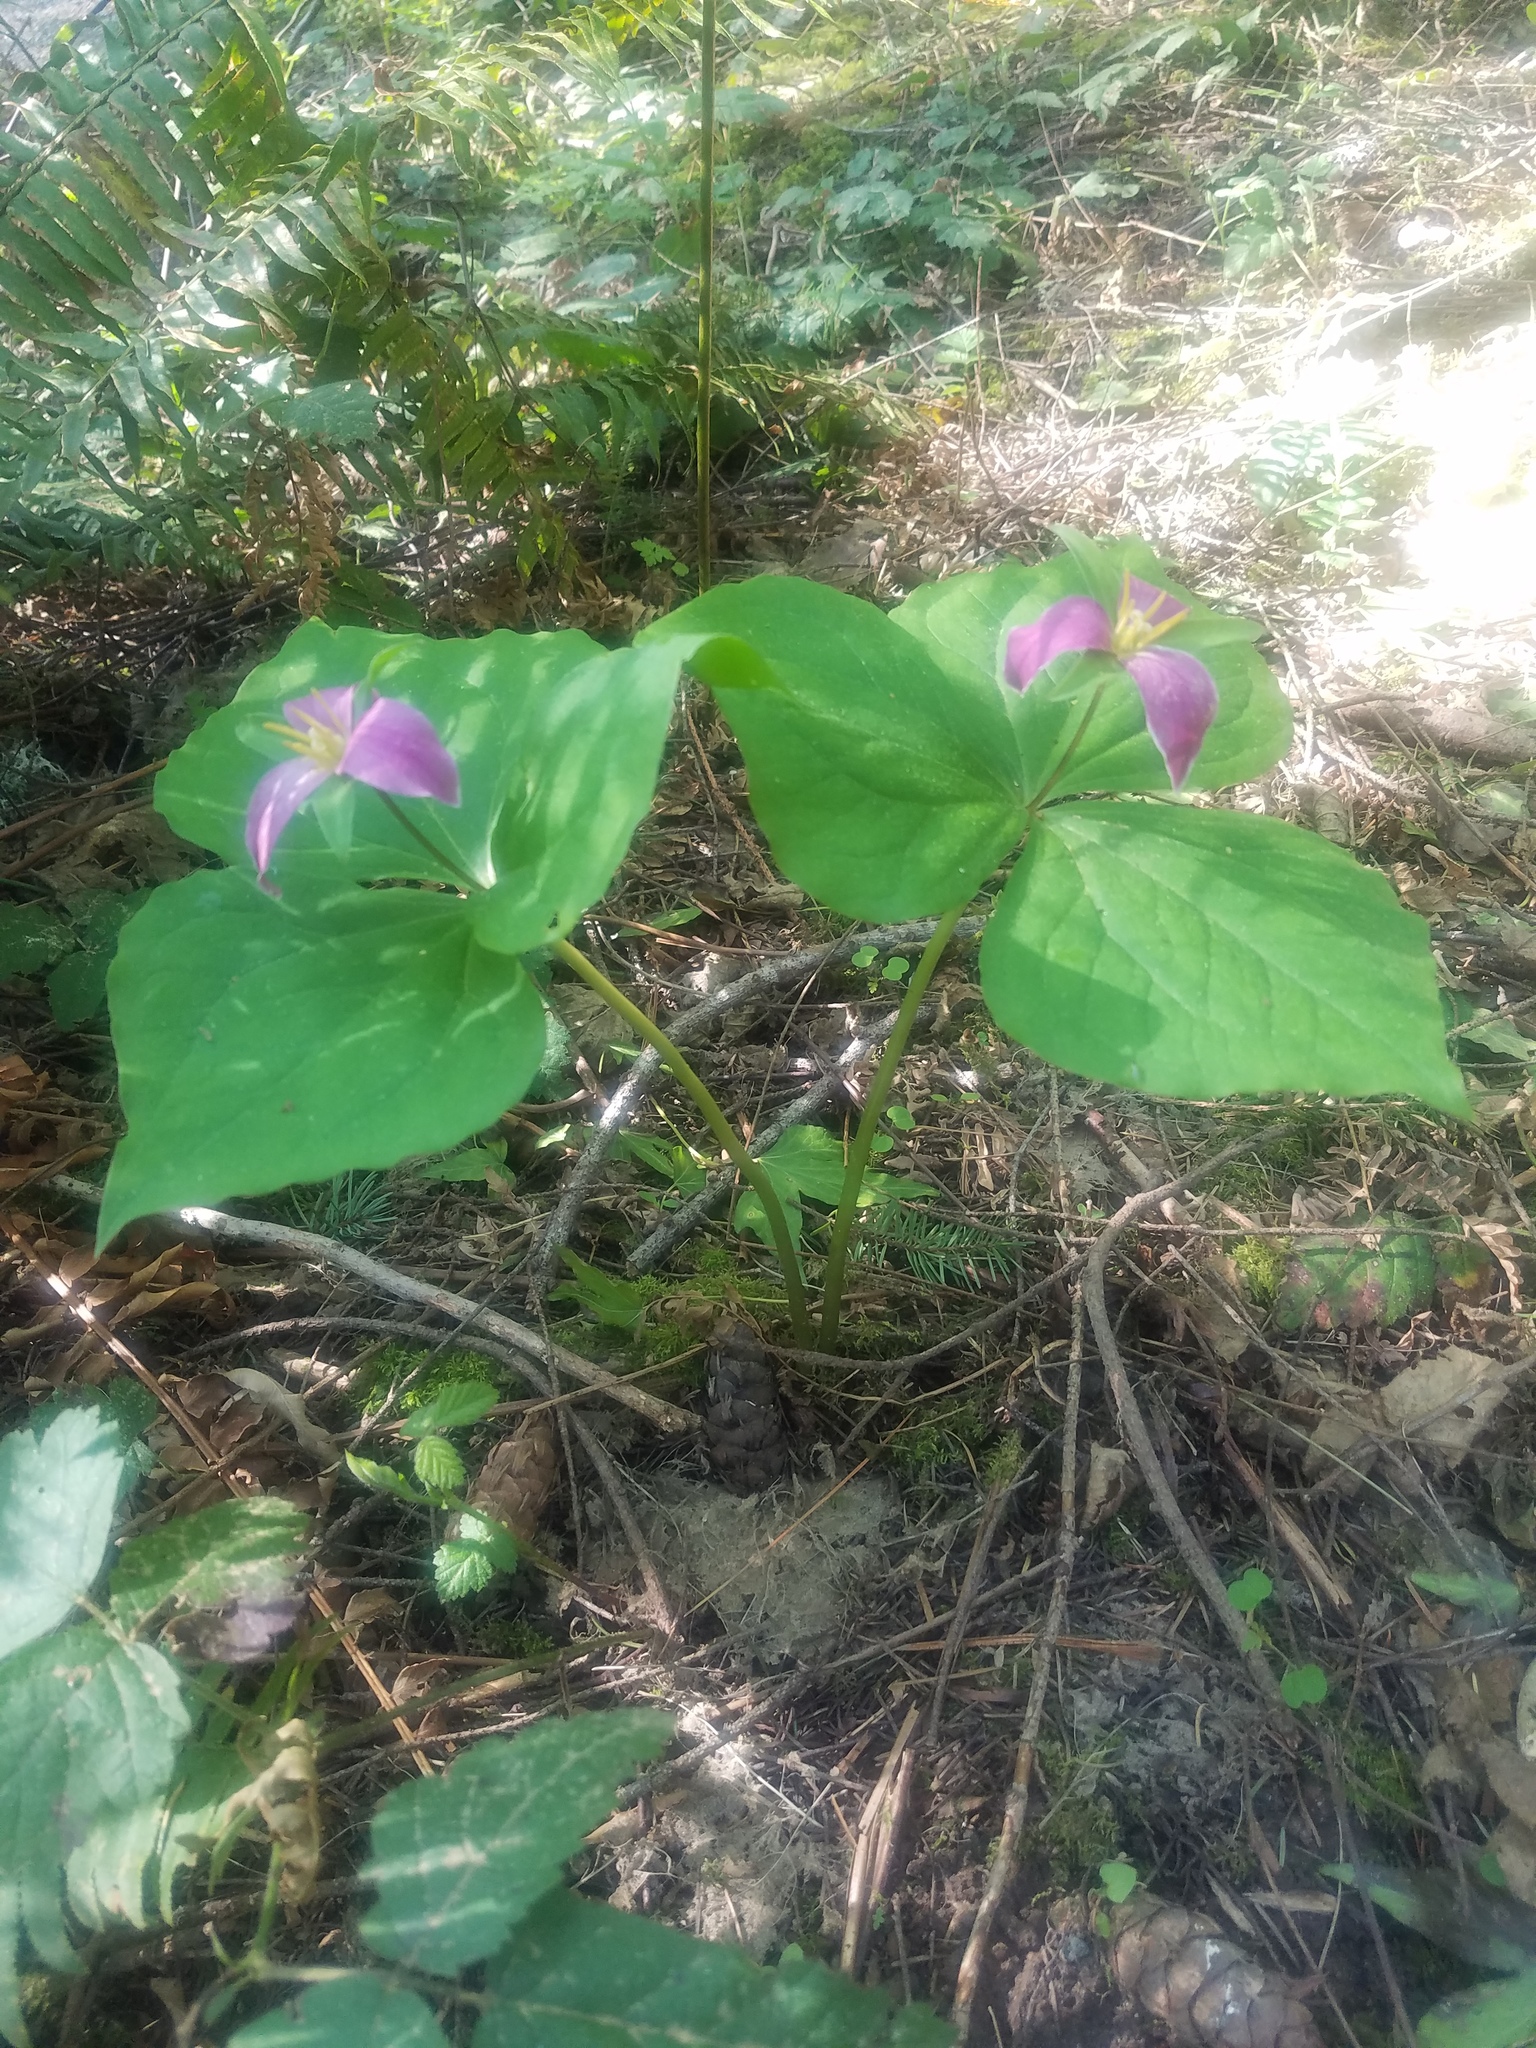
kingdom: Plantae
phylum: Tracheophyta
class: Liliopsida
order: Liliales
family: Melanthiaceae
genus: Trillium
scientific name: Trillium ovatum
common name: Pacific trillium
